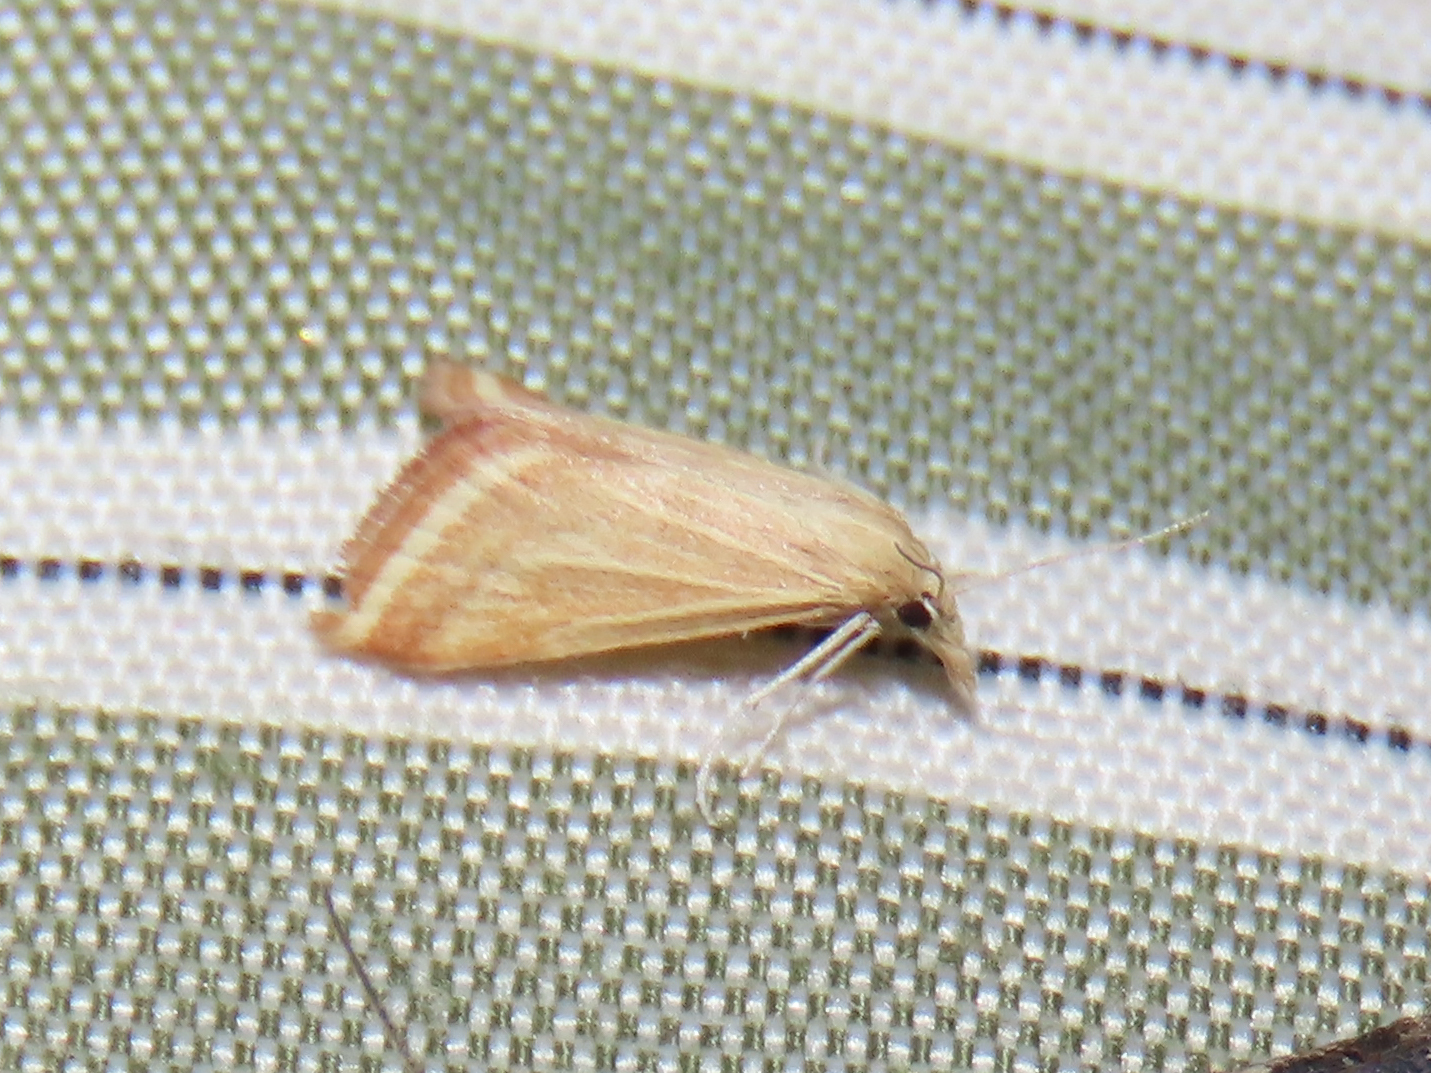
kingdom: Animalia
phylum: Arthropoda
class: Insecta
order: Lepidoptera
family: Crambidae
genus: Microtheoris
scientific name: Microtheoris ophionalis
